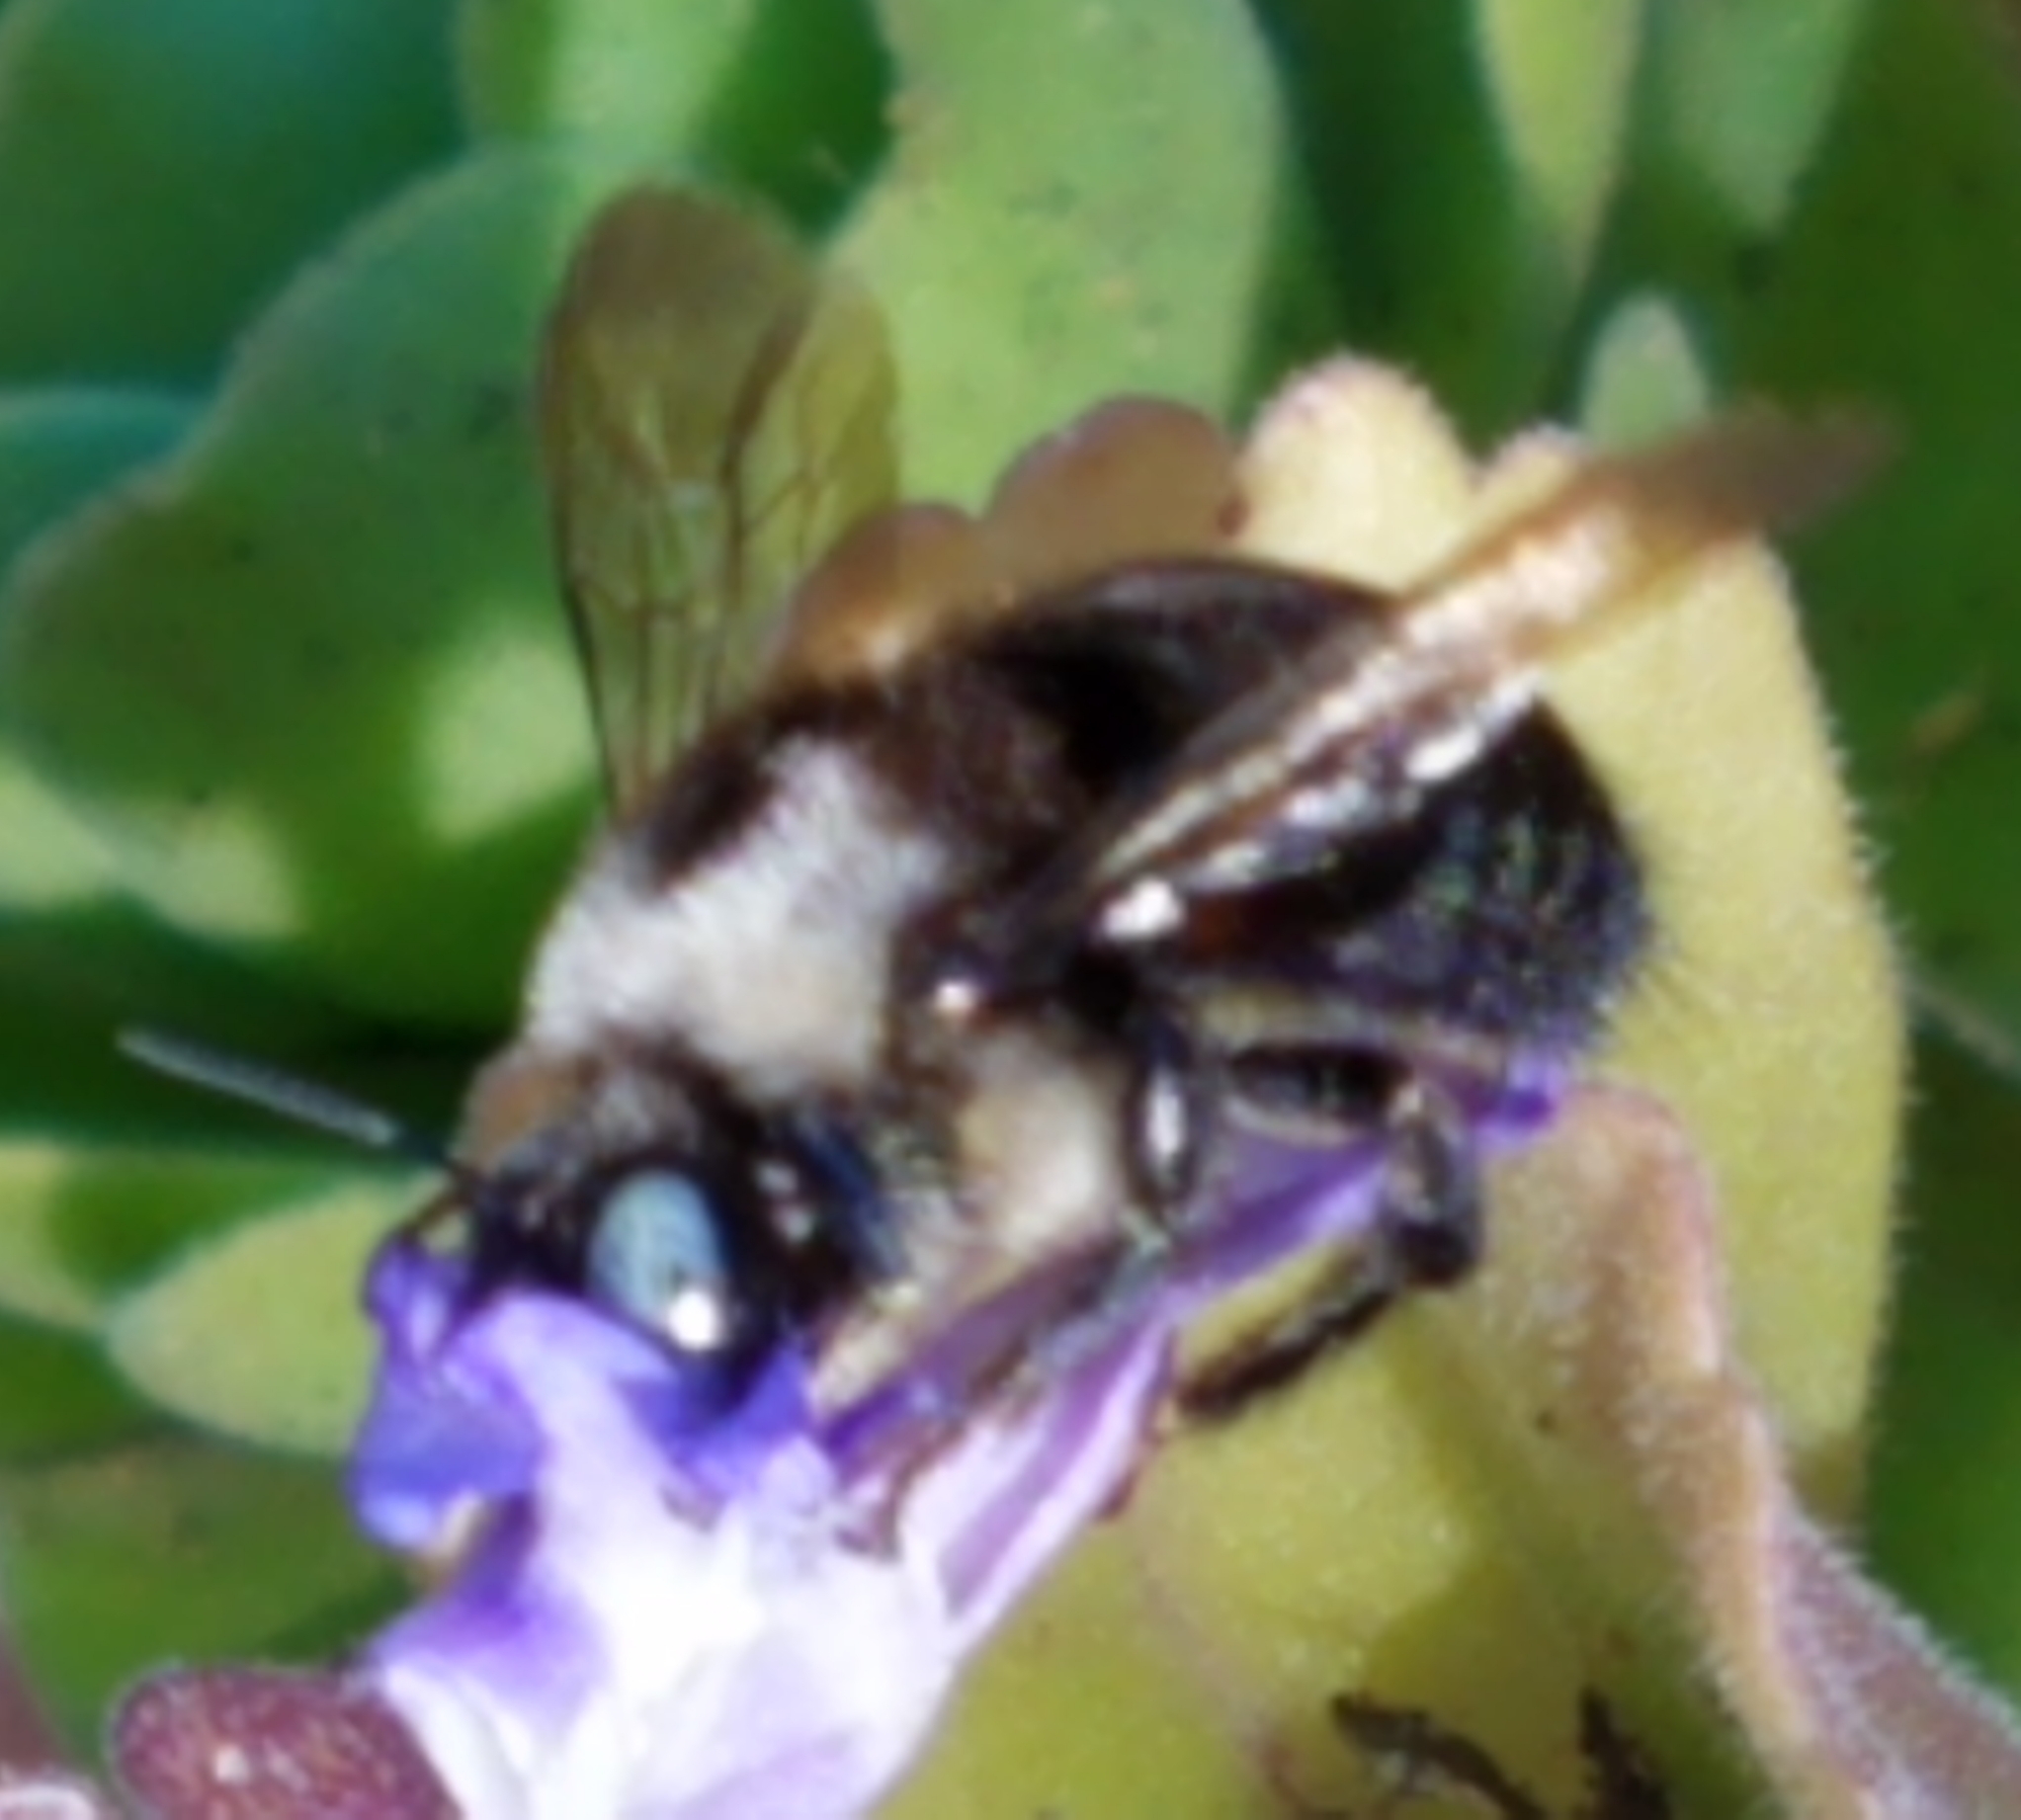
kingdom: Animalia
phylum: Arthropoda
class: Insecta
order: Hymenoptera
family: Apidae
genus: Xylocopa
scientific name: Xylocopa tabaniformis
